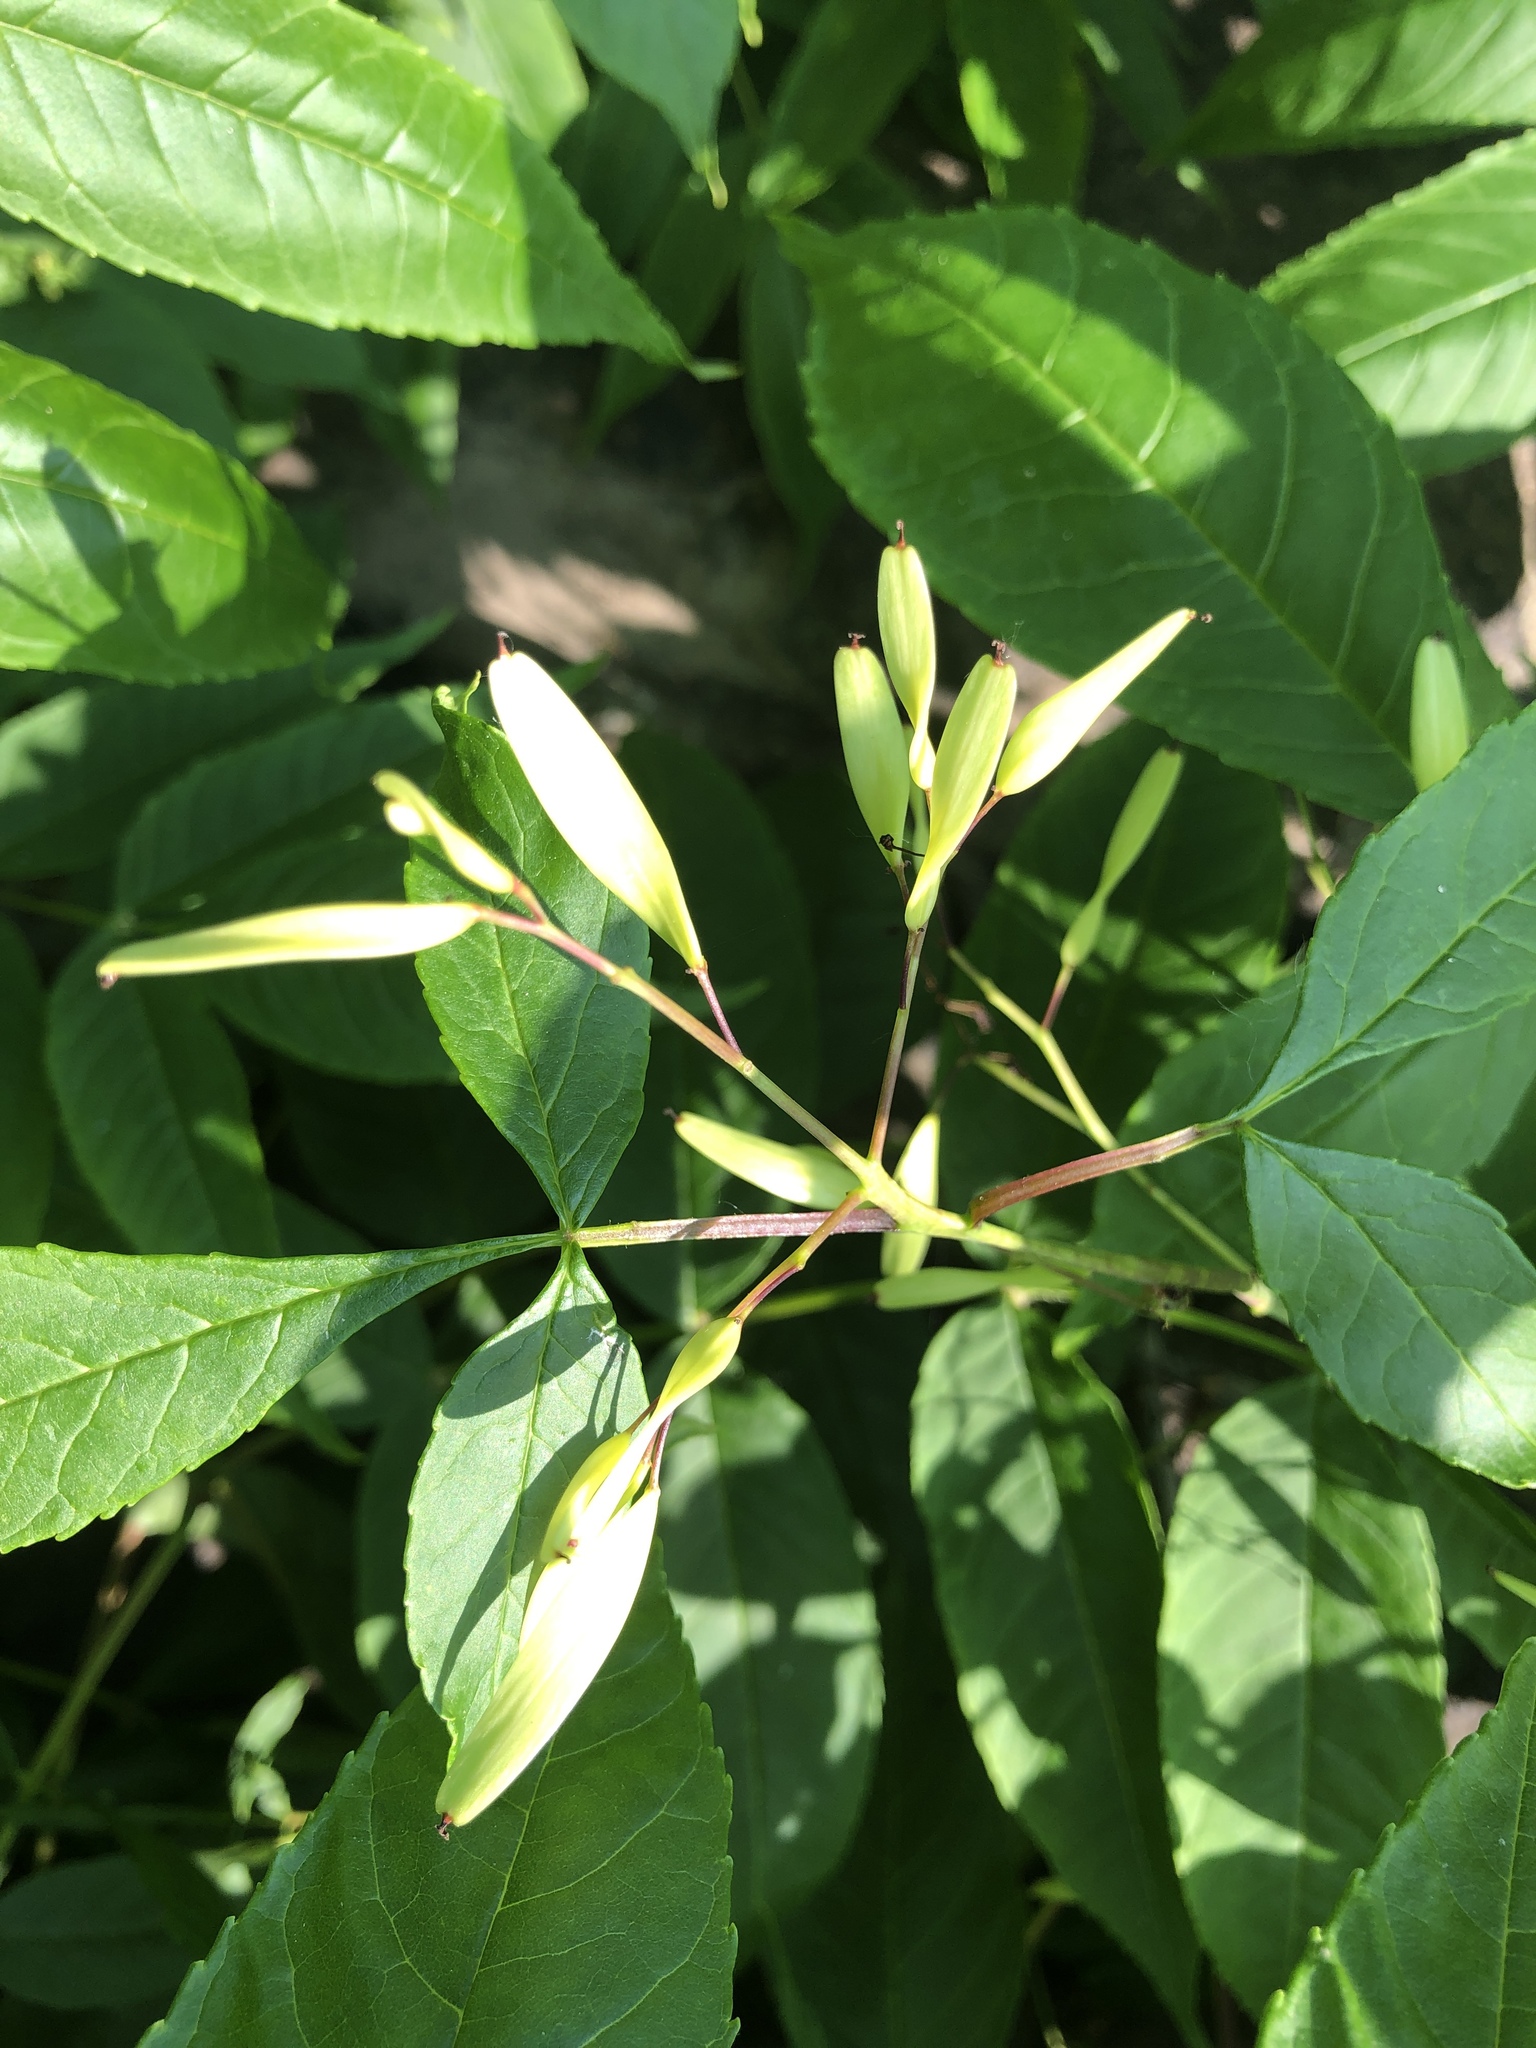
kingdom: Plantae
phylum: Tracheophyta
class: Magnoliopsida
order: Lamiales
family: Oleaceae
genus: Fraxinus
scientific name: Fraxinus nigra
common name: Black ash
